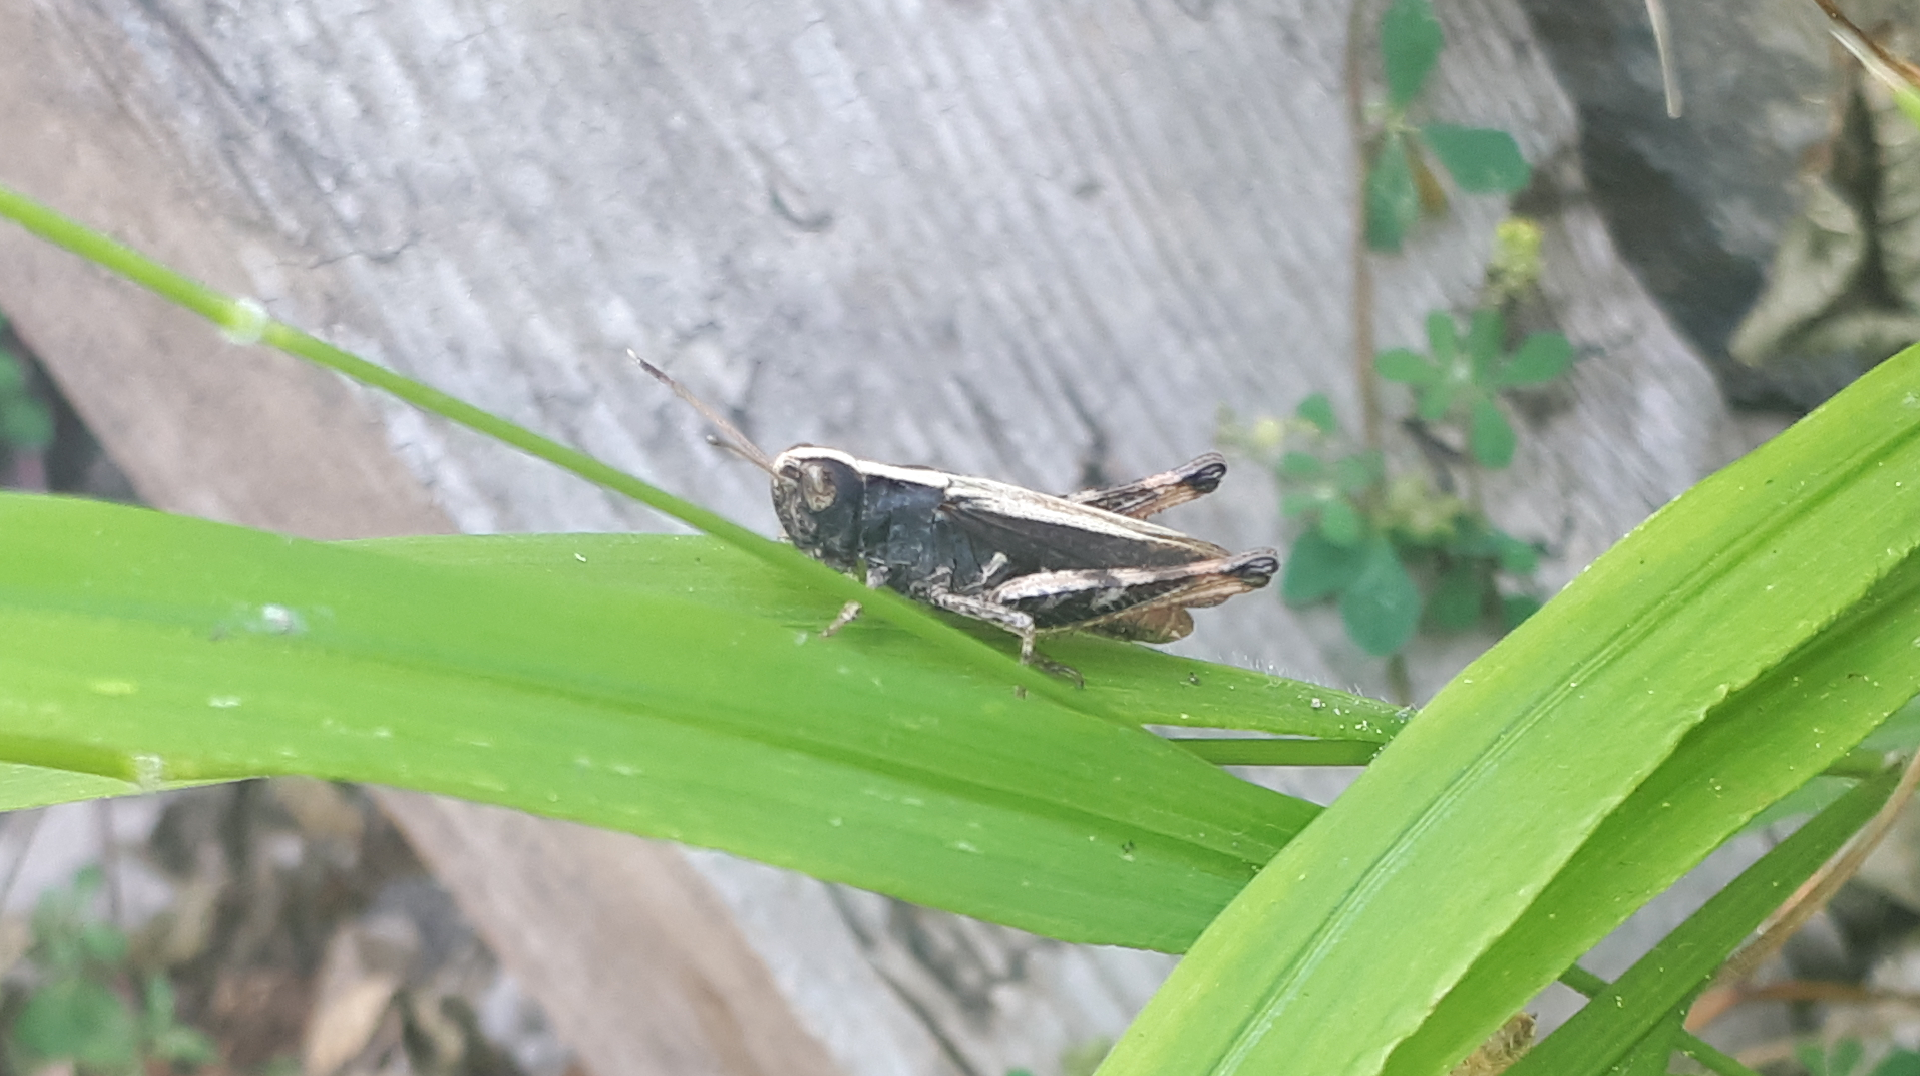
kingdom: Animalia
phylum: Arthropoda
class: Insecta
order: Orthoptera
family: Acrididae
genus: Gomphocerippus
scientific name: Gomphocerippus rufus
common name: Rufous grasshopper
